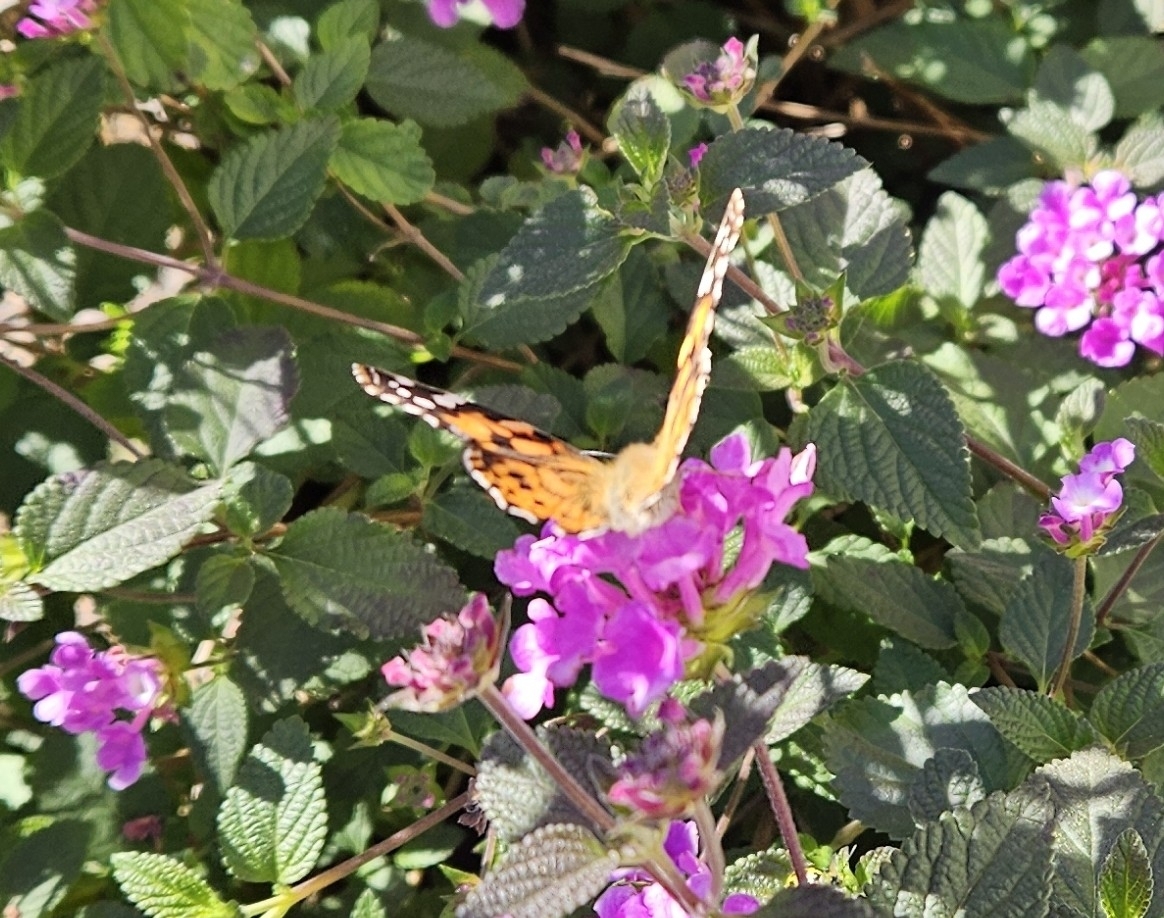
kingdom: Animalia
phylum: Arthropoda
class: Insecta
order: Lepidoptera
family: Nymphalidae
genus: Vanessa
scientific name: Vanessa cardui
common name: Painted lady
